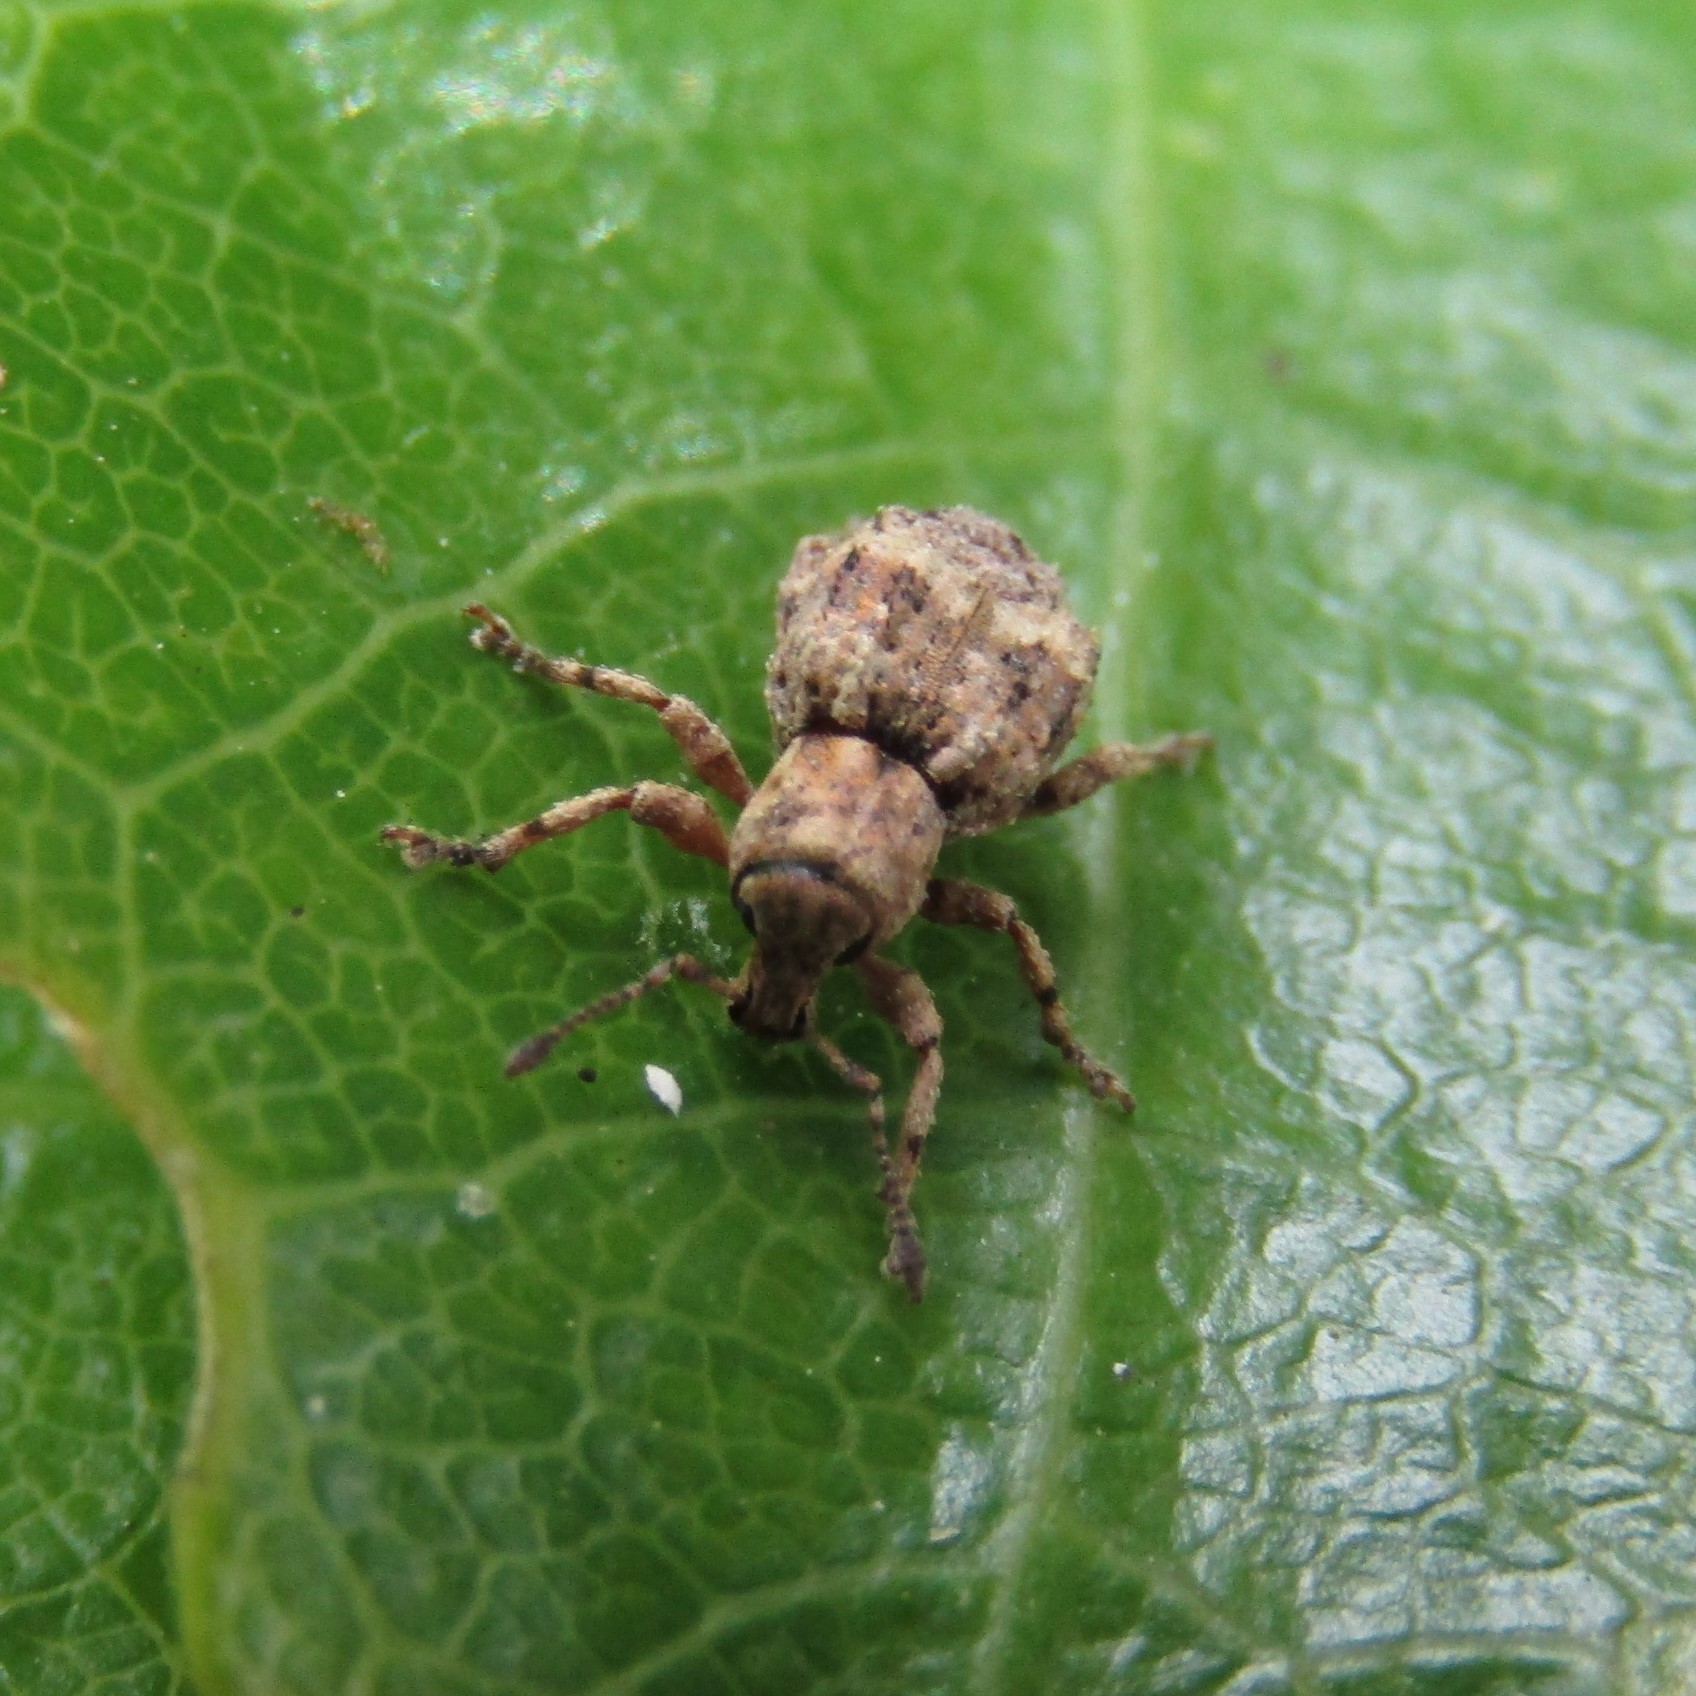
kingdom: Animalia
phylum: Arthropoda
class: Insecta
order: Coleoptera
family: Curculionidae
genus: Brachyolus
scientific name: Brachyolus punctatus
